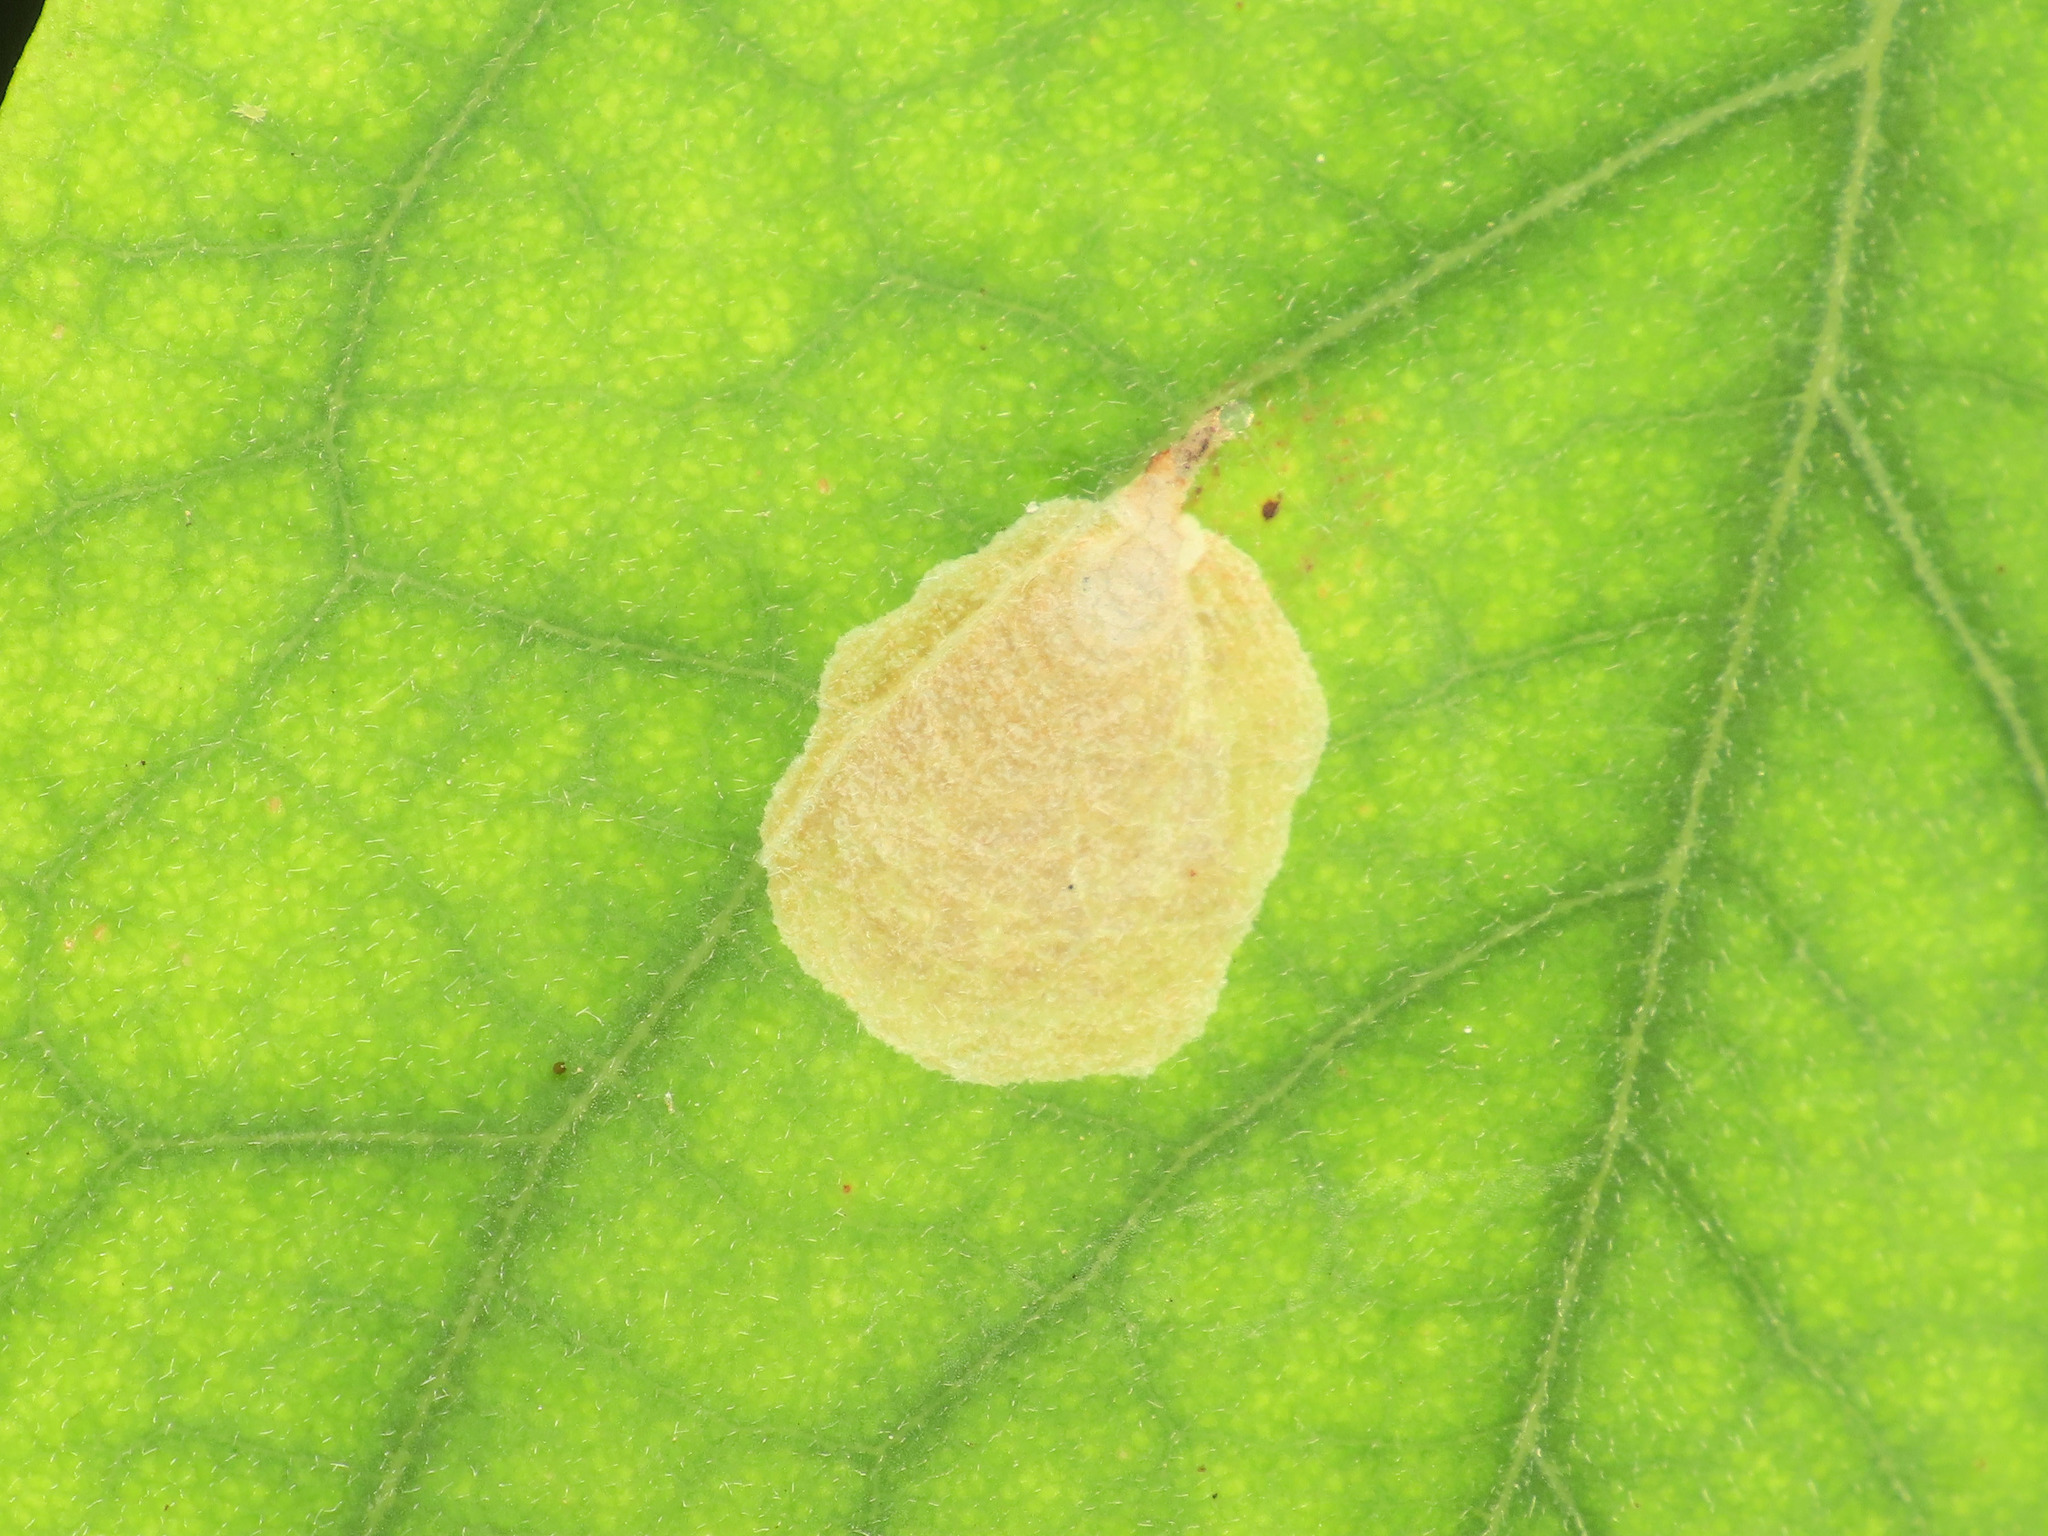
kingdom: Animalia
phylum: Arthropoda
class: Insecta
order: Lepidoptera
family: Gracillariidae
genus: Chrysaster
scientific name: Chrysaster ostensackenella
